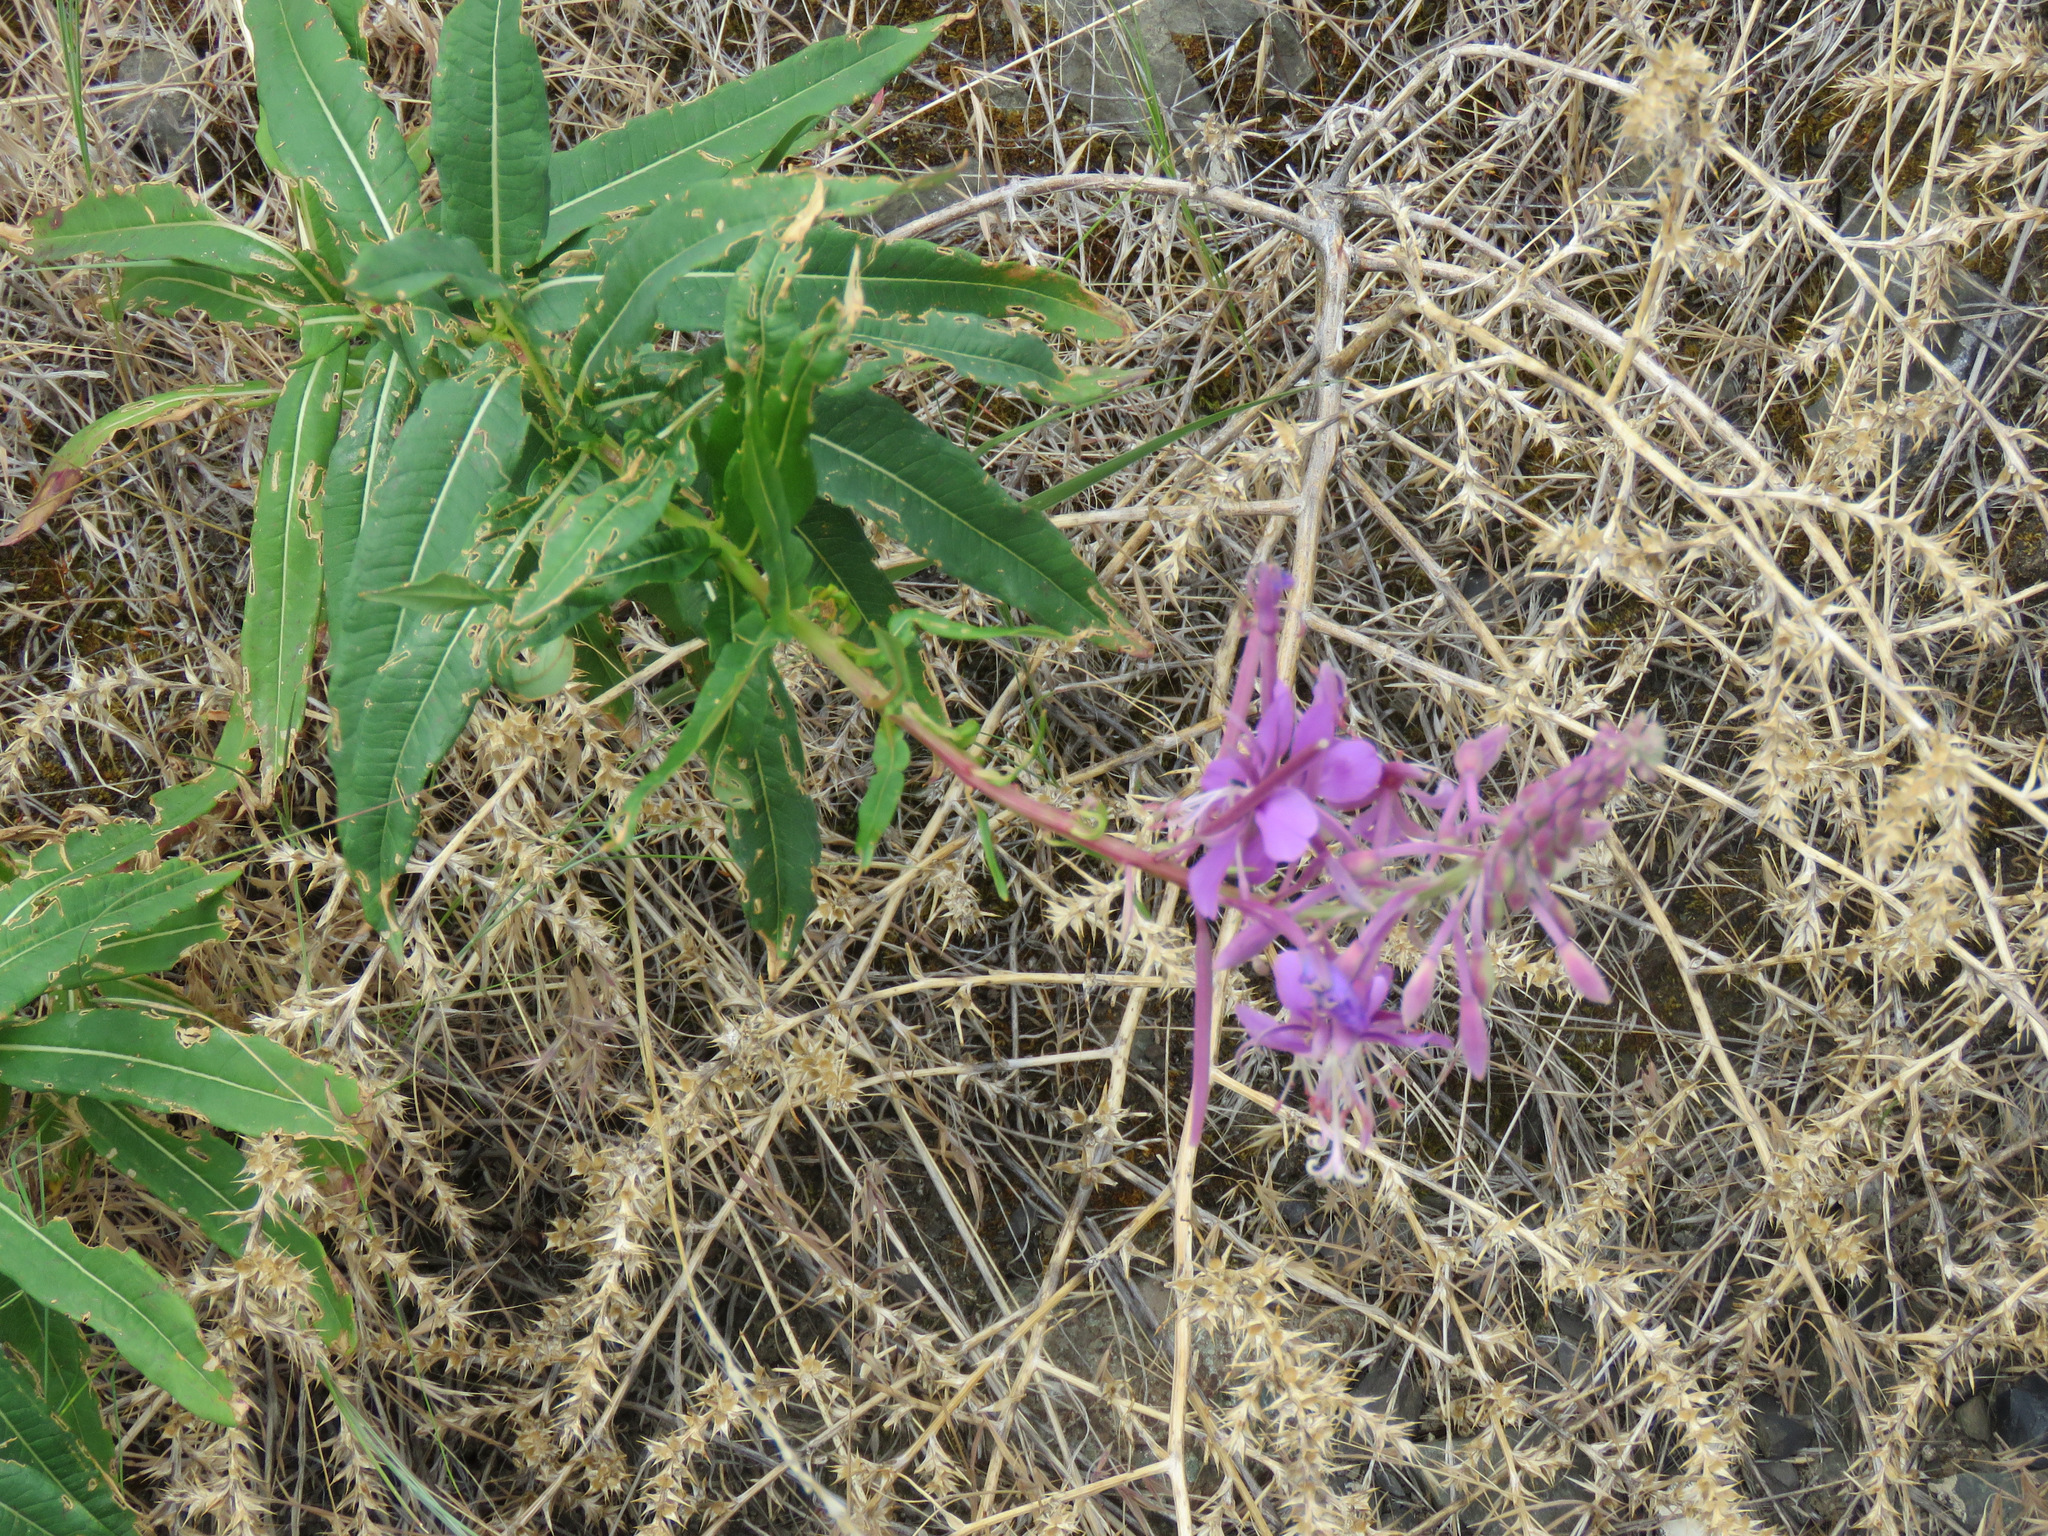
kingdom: Plantae
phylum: Tracheophyta
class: Magnoliopsida
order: Myrtales
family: Onagraceae
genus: Chamaenerion
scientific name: Chamaenerion angustifolium
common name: Fireweed
